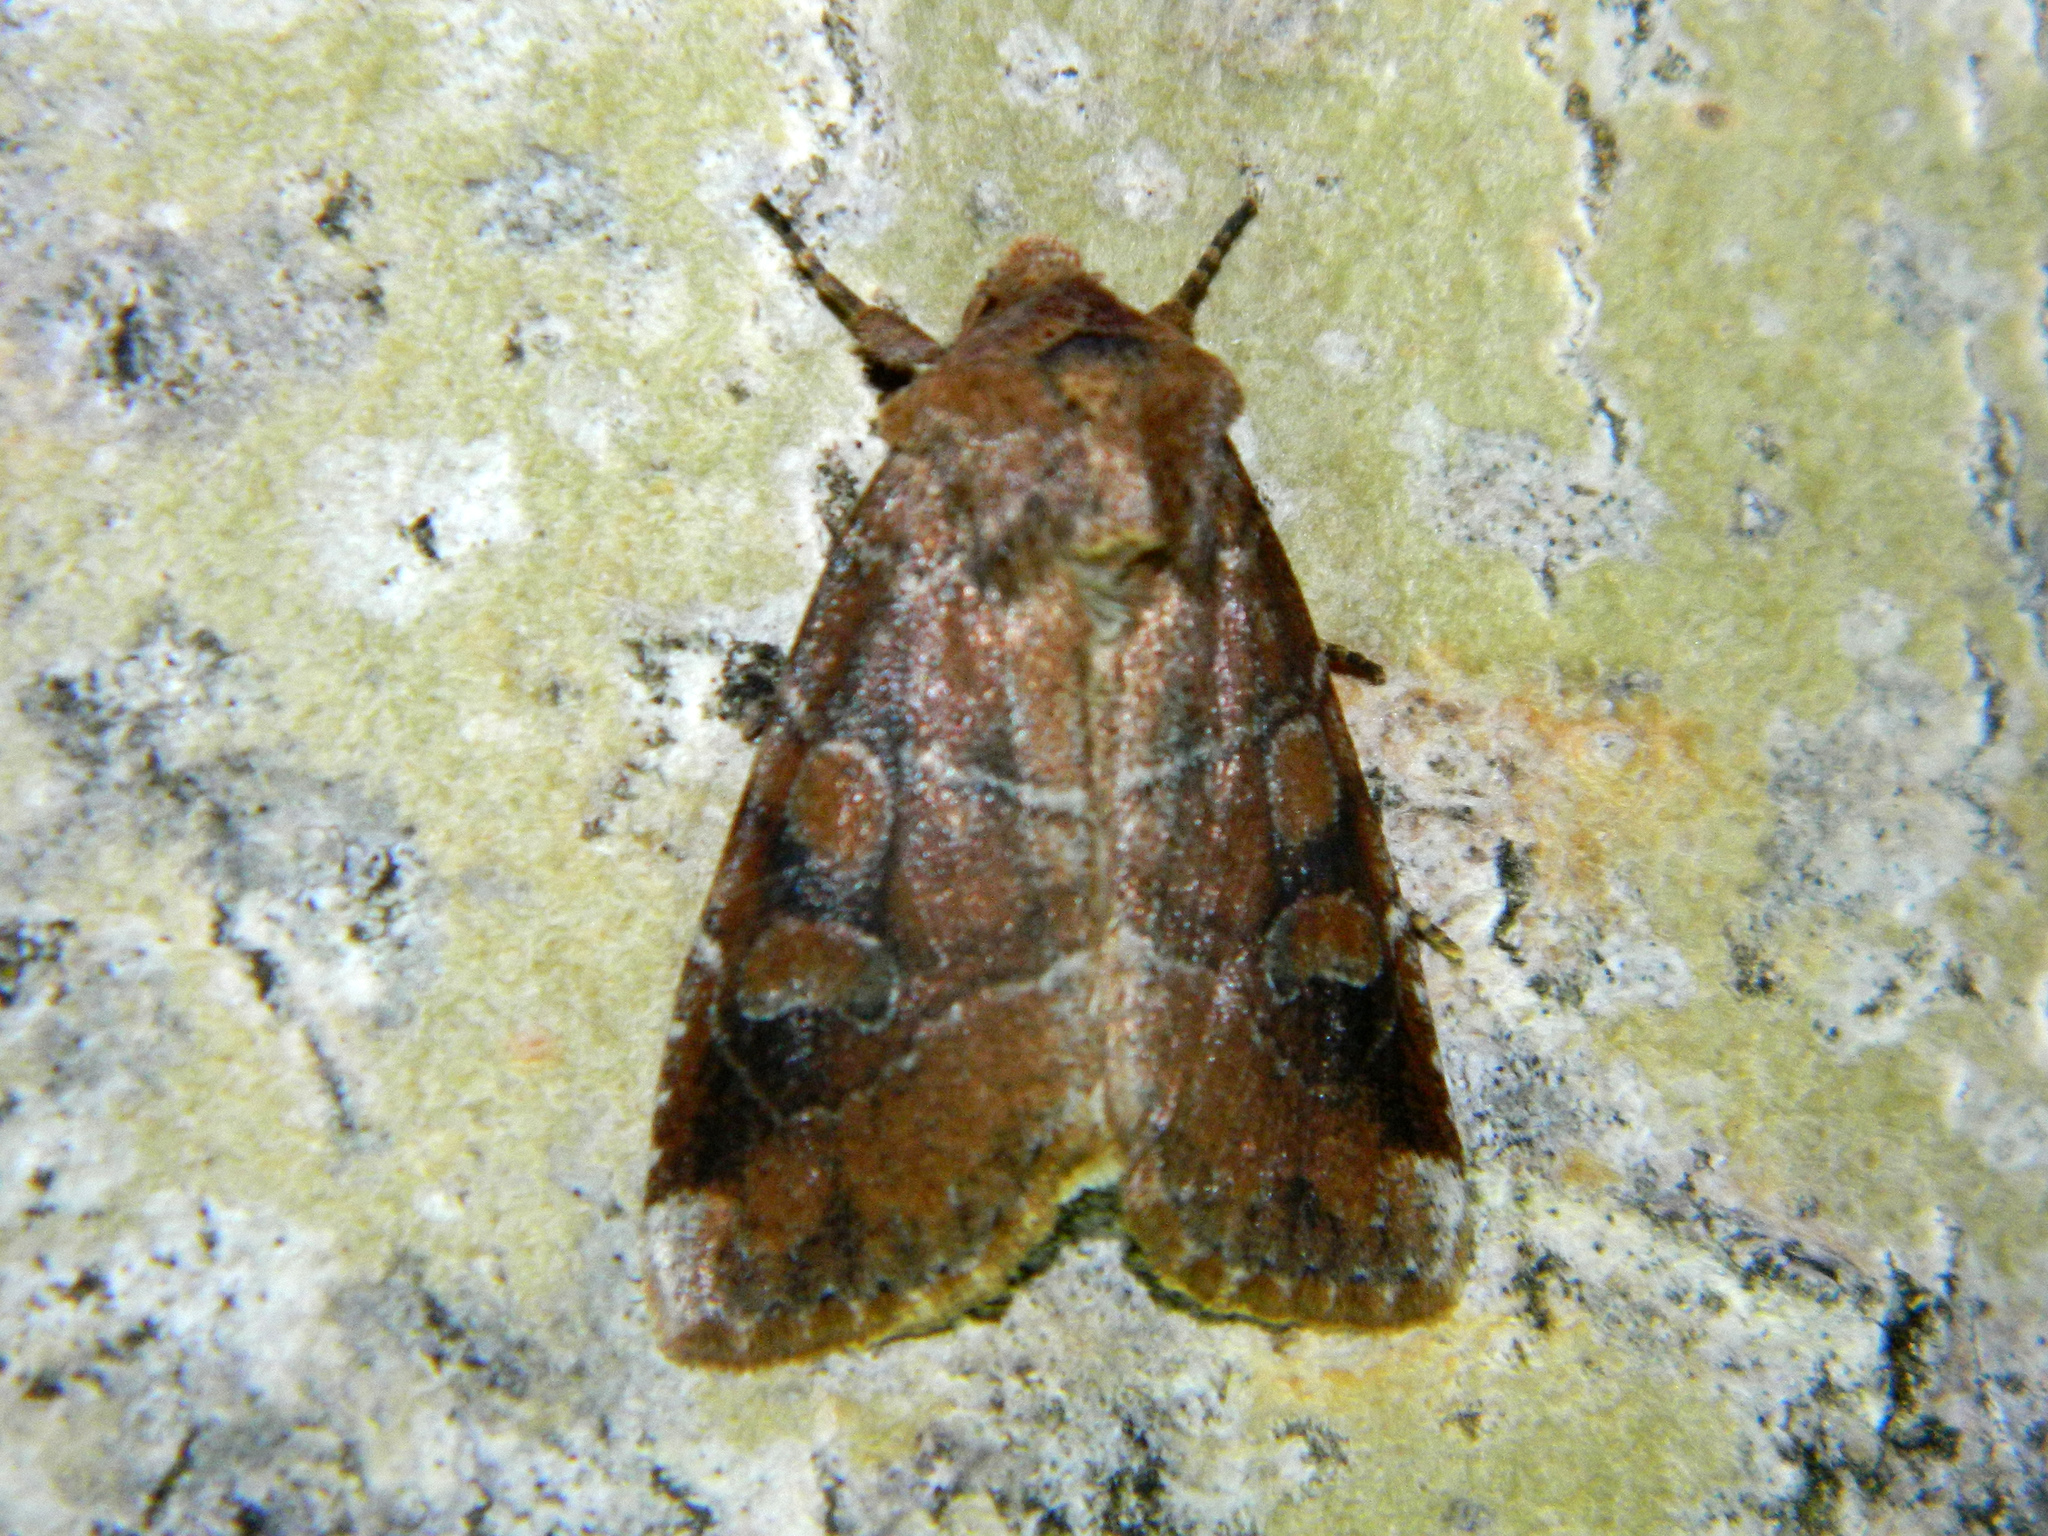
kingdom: Animalia
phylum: Arthropoda
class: Insecta
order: Lepidoptera
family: Noctuidae
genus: Crocigrapha
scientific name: Crocigrapha normani
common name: Norman's quaker
